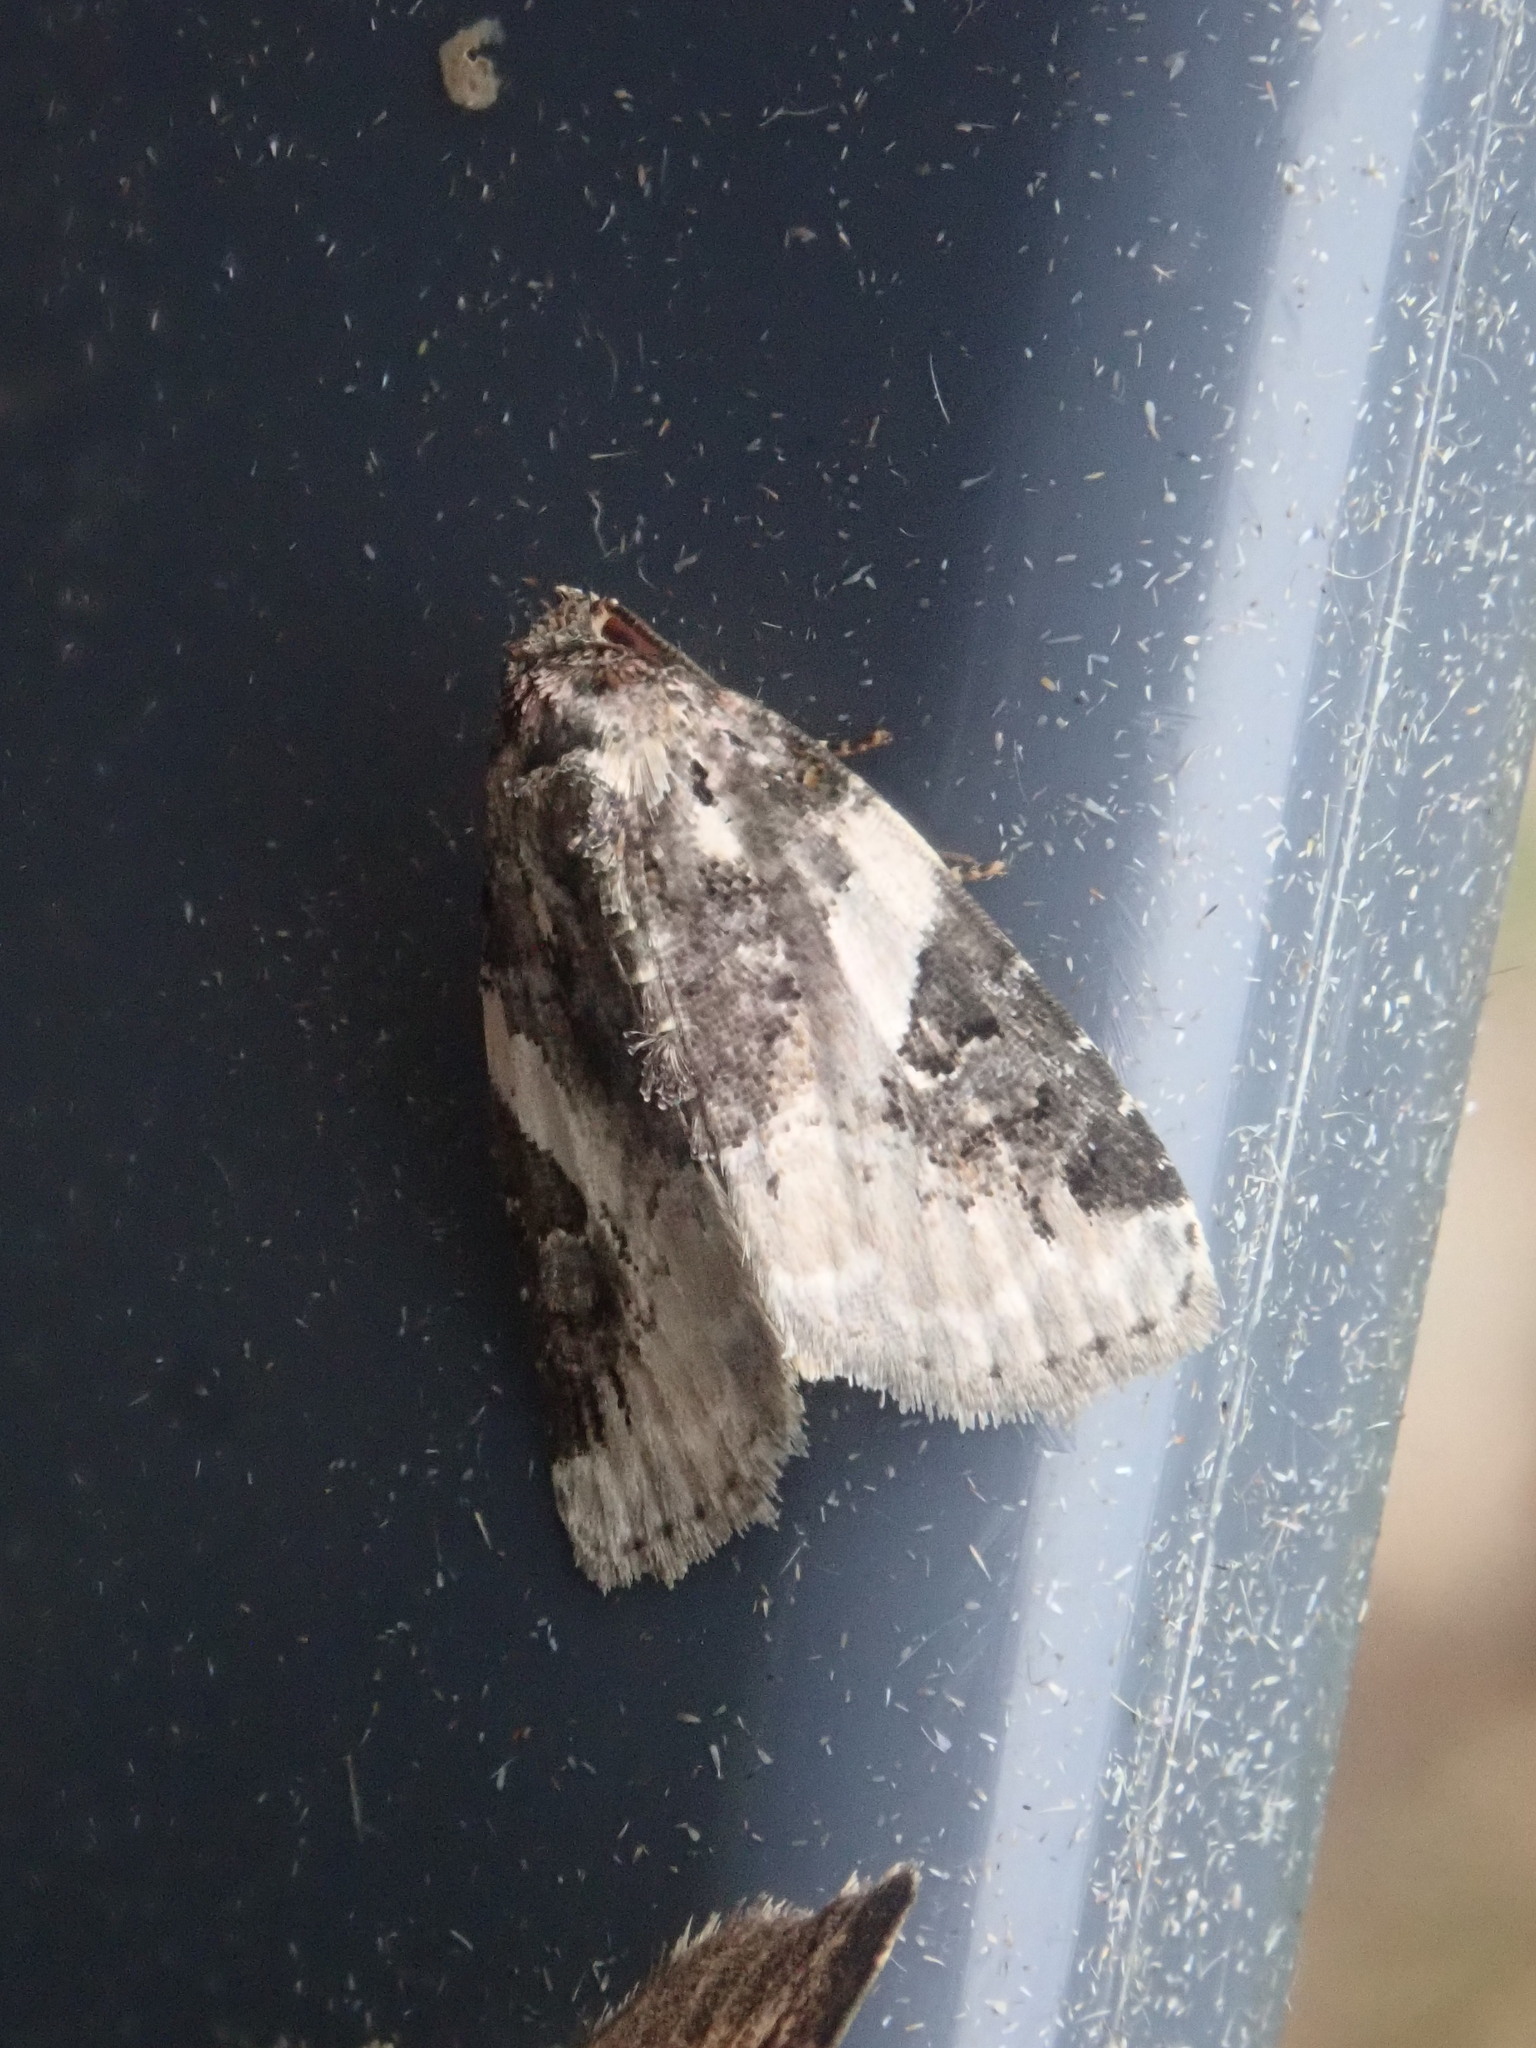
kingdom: Animalia
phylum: Arthropoda
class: Insecta
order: Lepidoptera
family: Noctuidae
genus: Pseudeustrotia
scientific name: Pseudeustrotia carneola
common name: Pink-barred lithacodia moth
